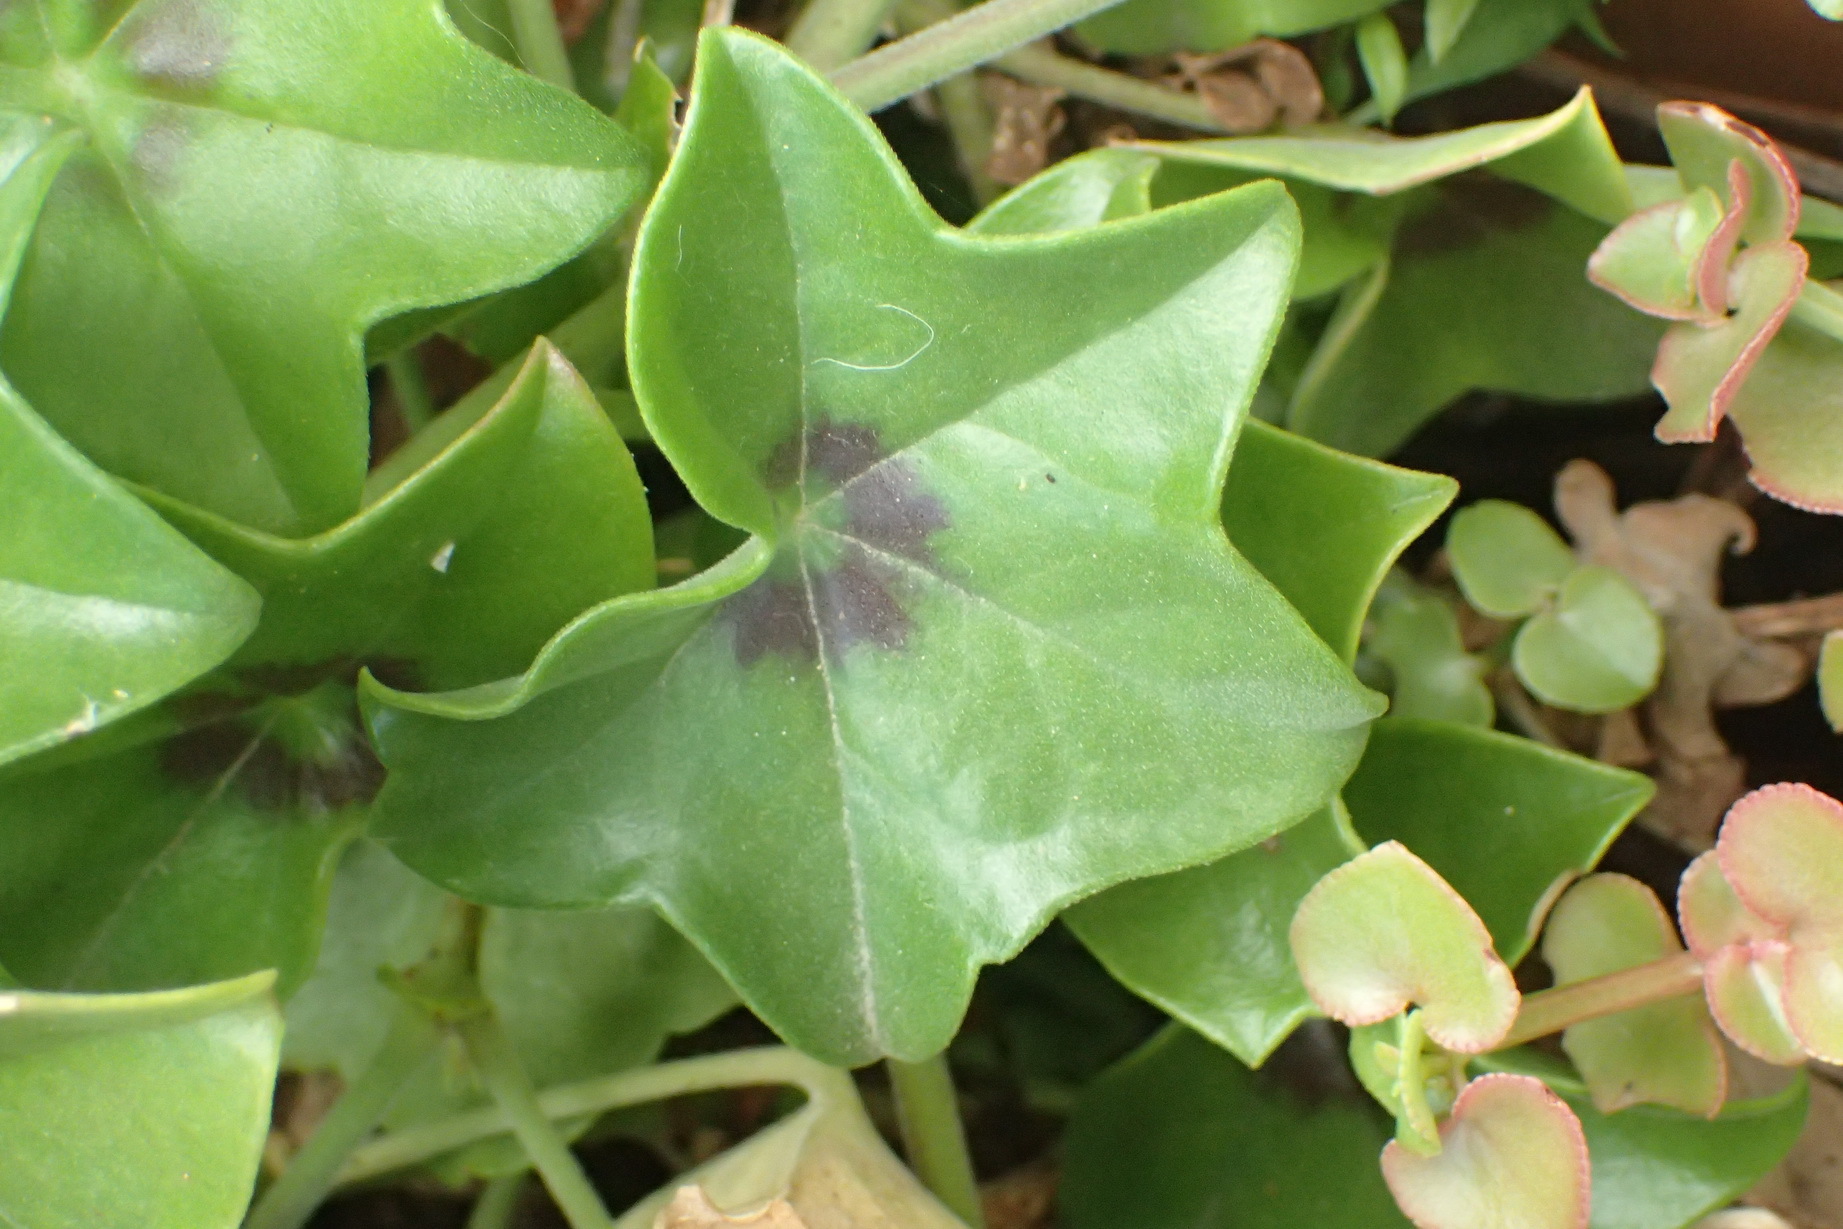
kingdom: Plantae
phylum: Tracheophyta
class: Magnoliopsida
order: Geraniales
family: Geraniaceae
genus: Pelargonium
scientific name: Pelargonium peltatum
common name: Ivyleaf geranium
